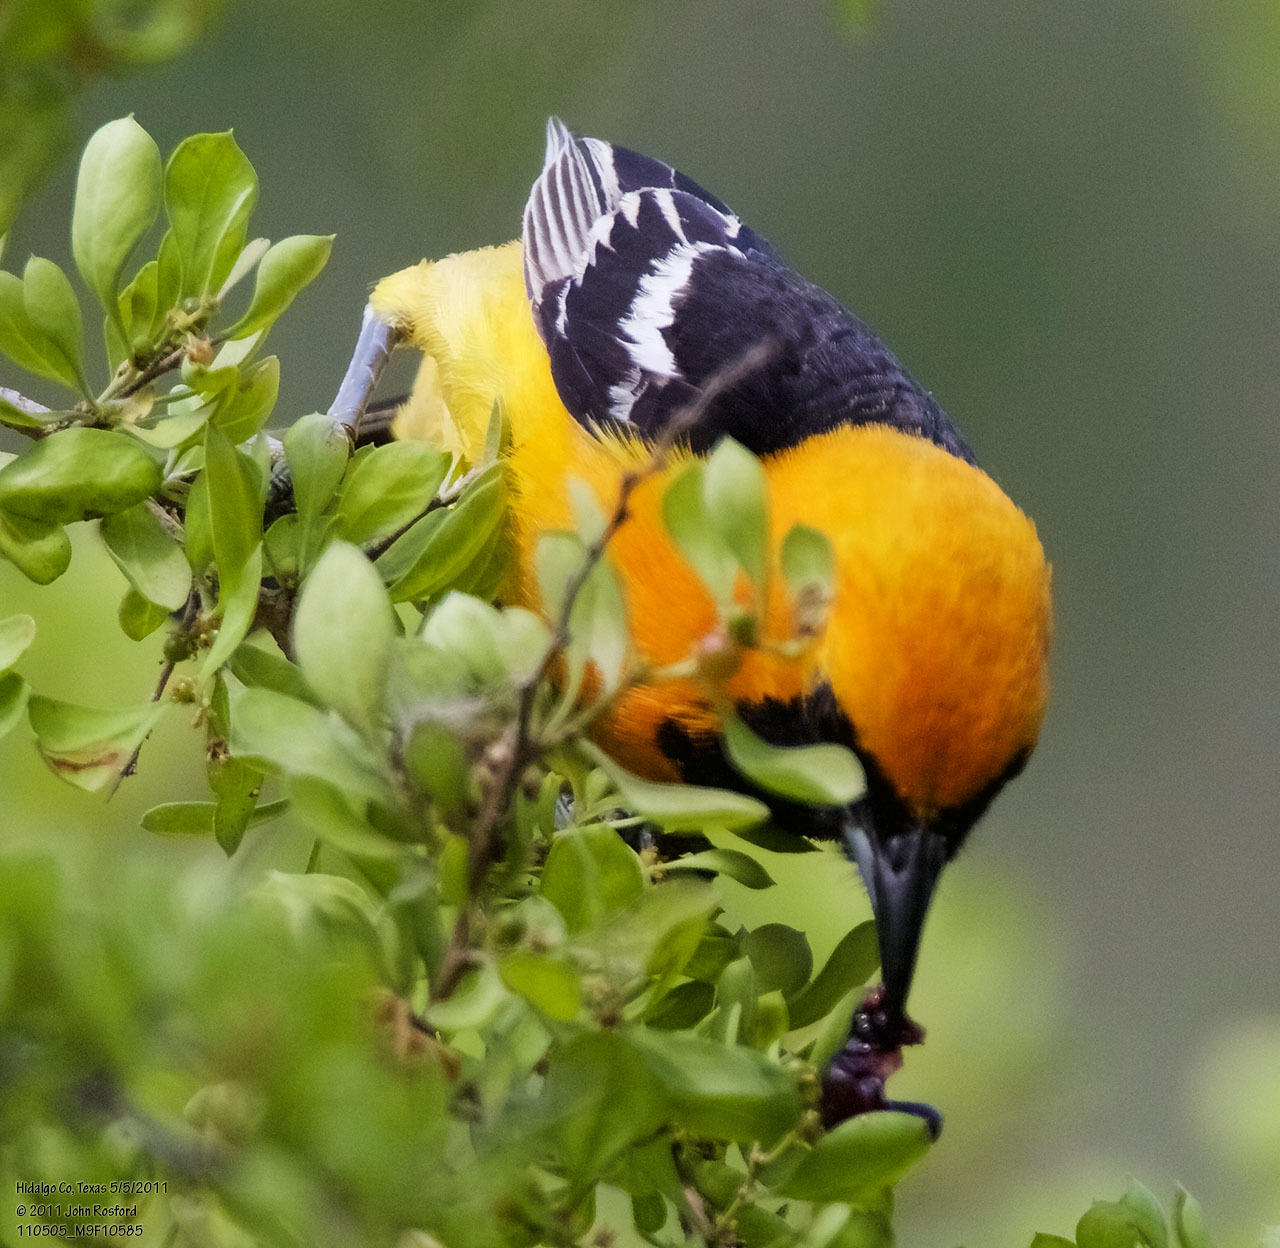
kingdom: Animalia
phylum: Chordata
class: Aves
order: Passeriformes
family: Icteridae
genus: Icterus
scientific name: Icterus cucullatus
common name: Hooded oriole
